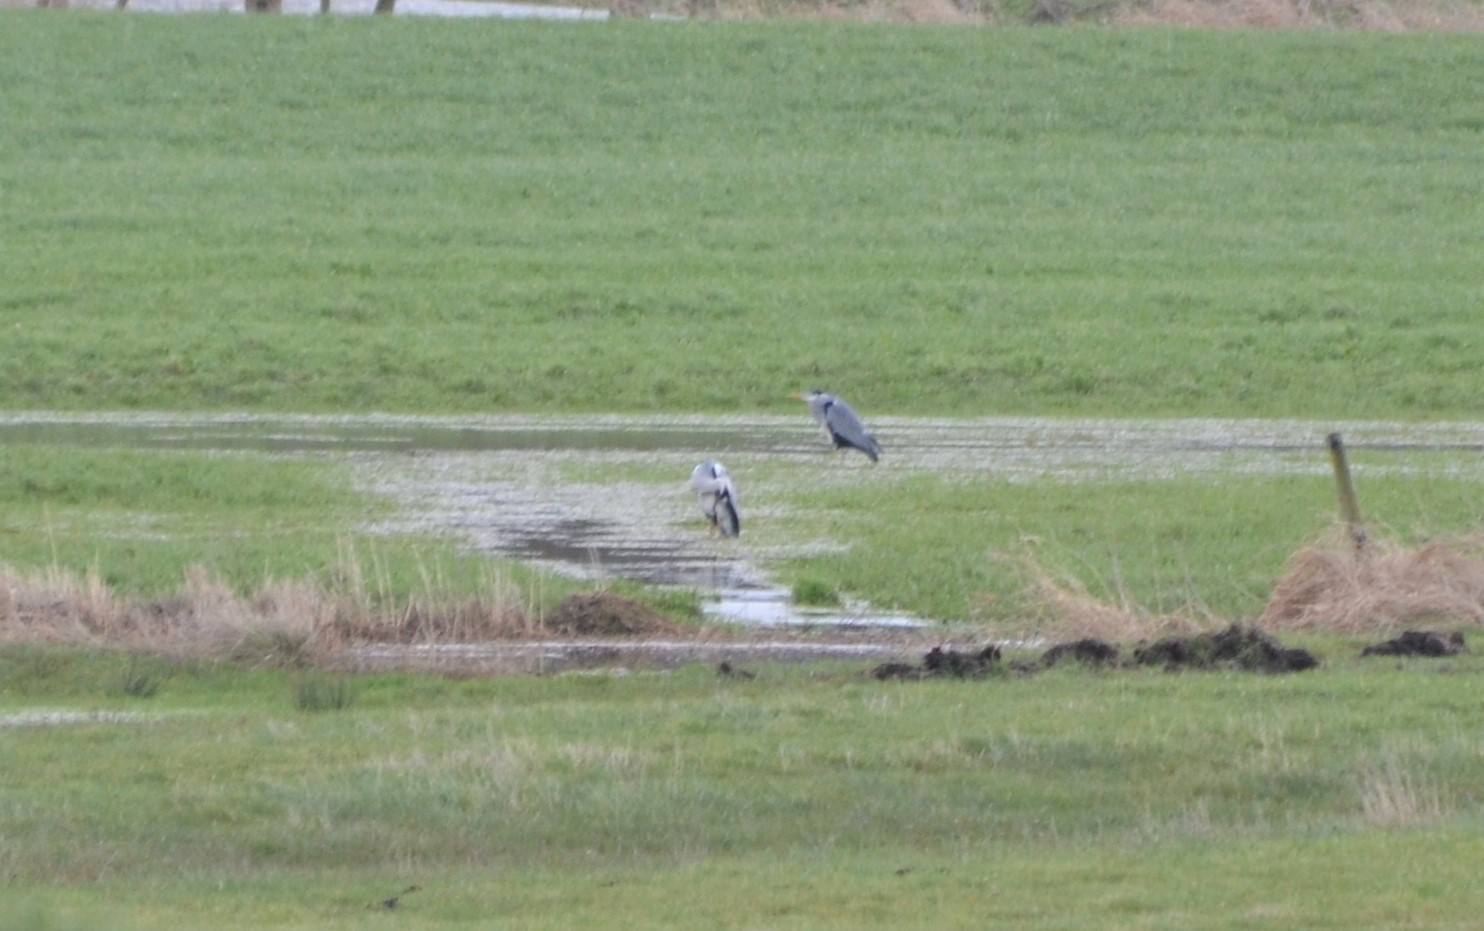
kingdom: Animalia
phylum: Chordata
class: Aves
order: Pelecaniformes
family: Ardeidae
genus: Ardea
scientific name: Ardea cinerea
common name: Grey heron
